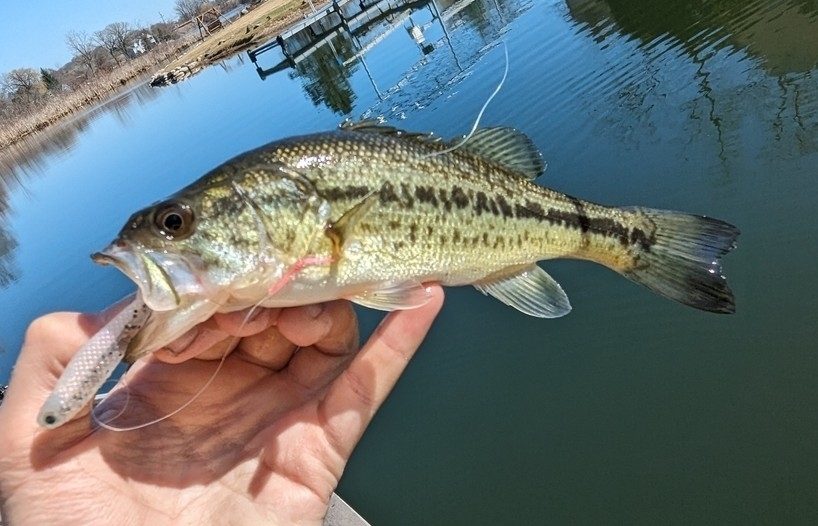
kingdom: Animalia
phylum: Chordata
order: Perciformes
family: Centrarchidae
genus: Micropterus
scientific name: Micropterus
